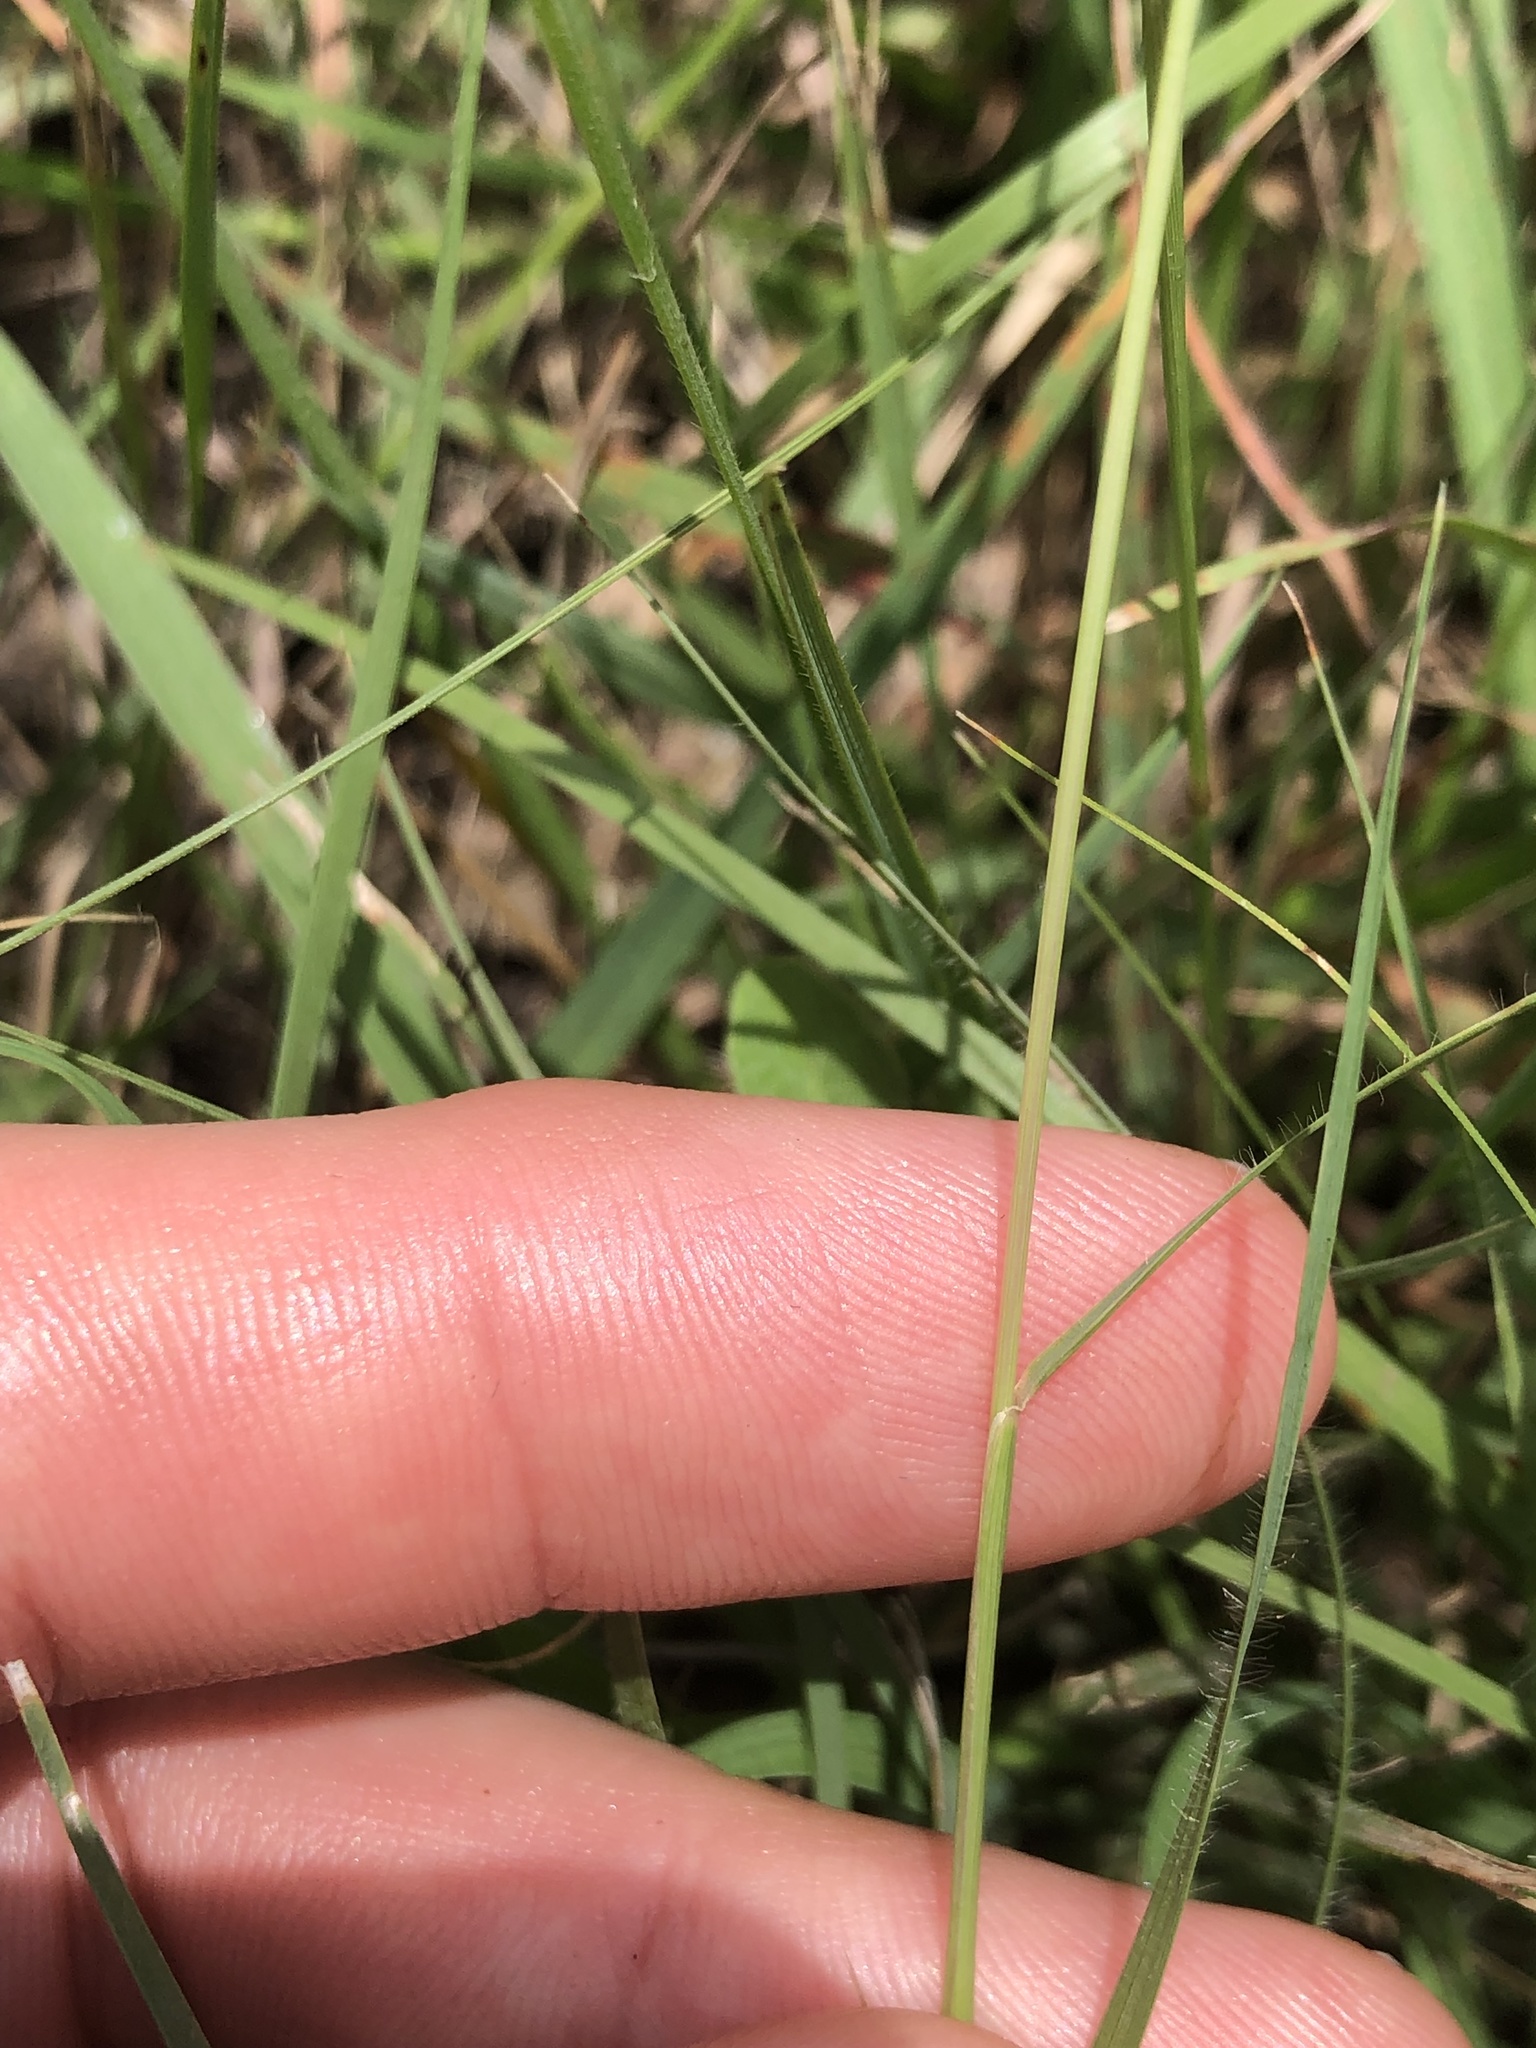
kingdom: Plantae
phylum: Tracheophyta
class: Liliopsida
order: Poales
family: Poaceae
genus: Bouteloua
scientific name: Bouteloua rigidiseta
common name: Texas grama
